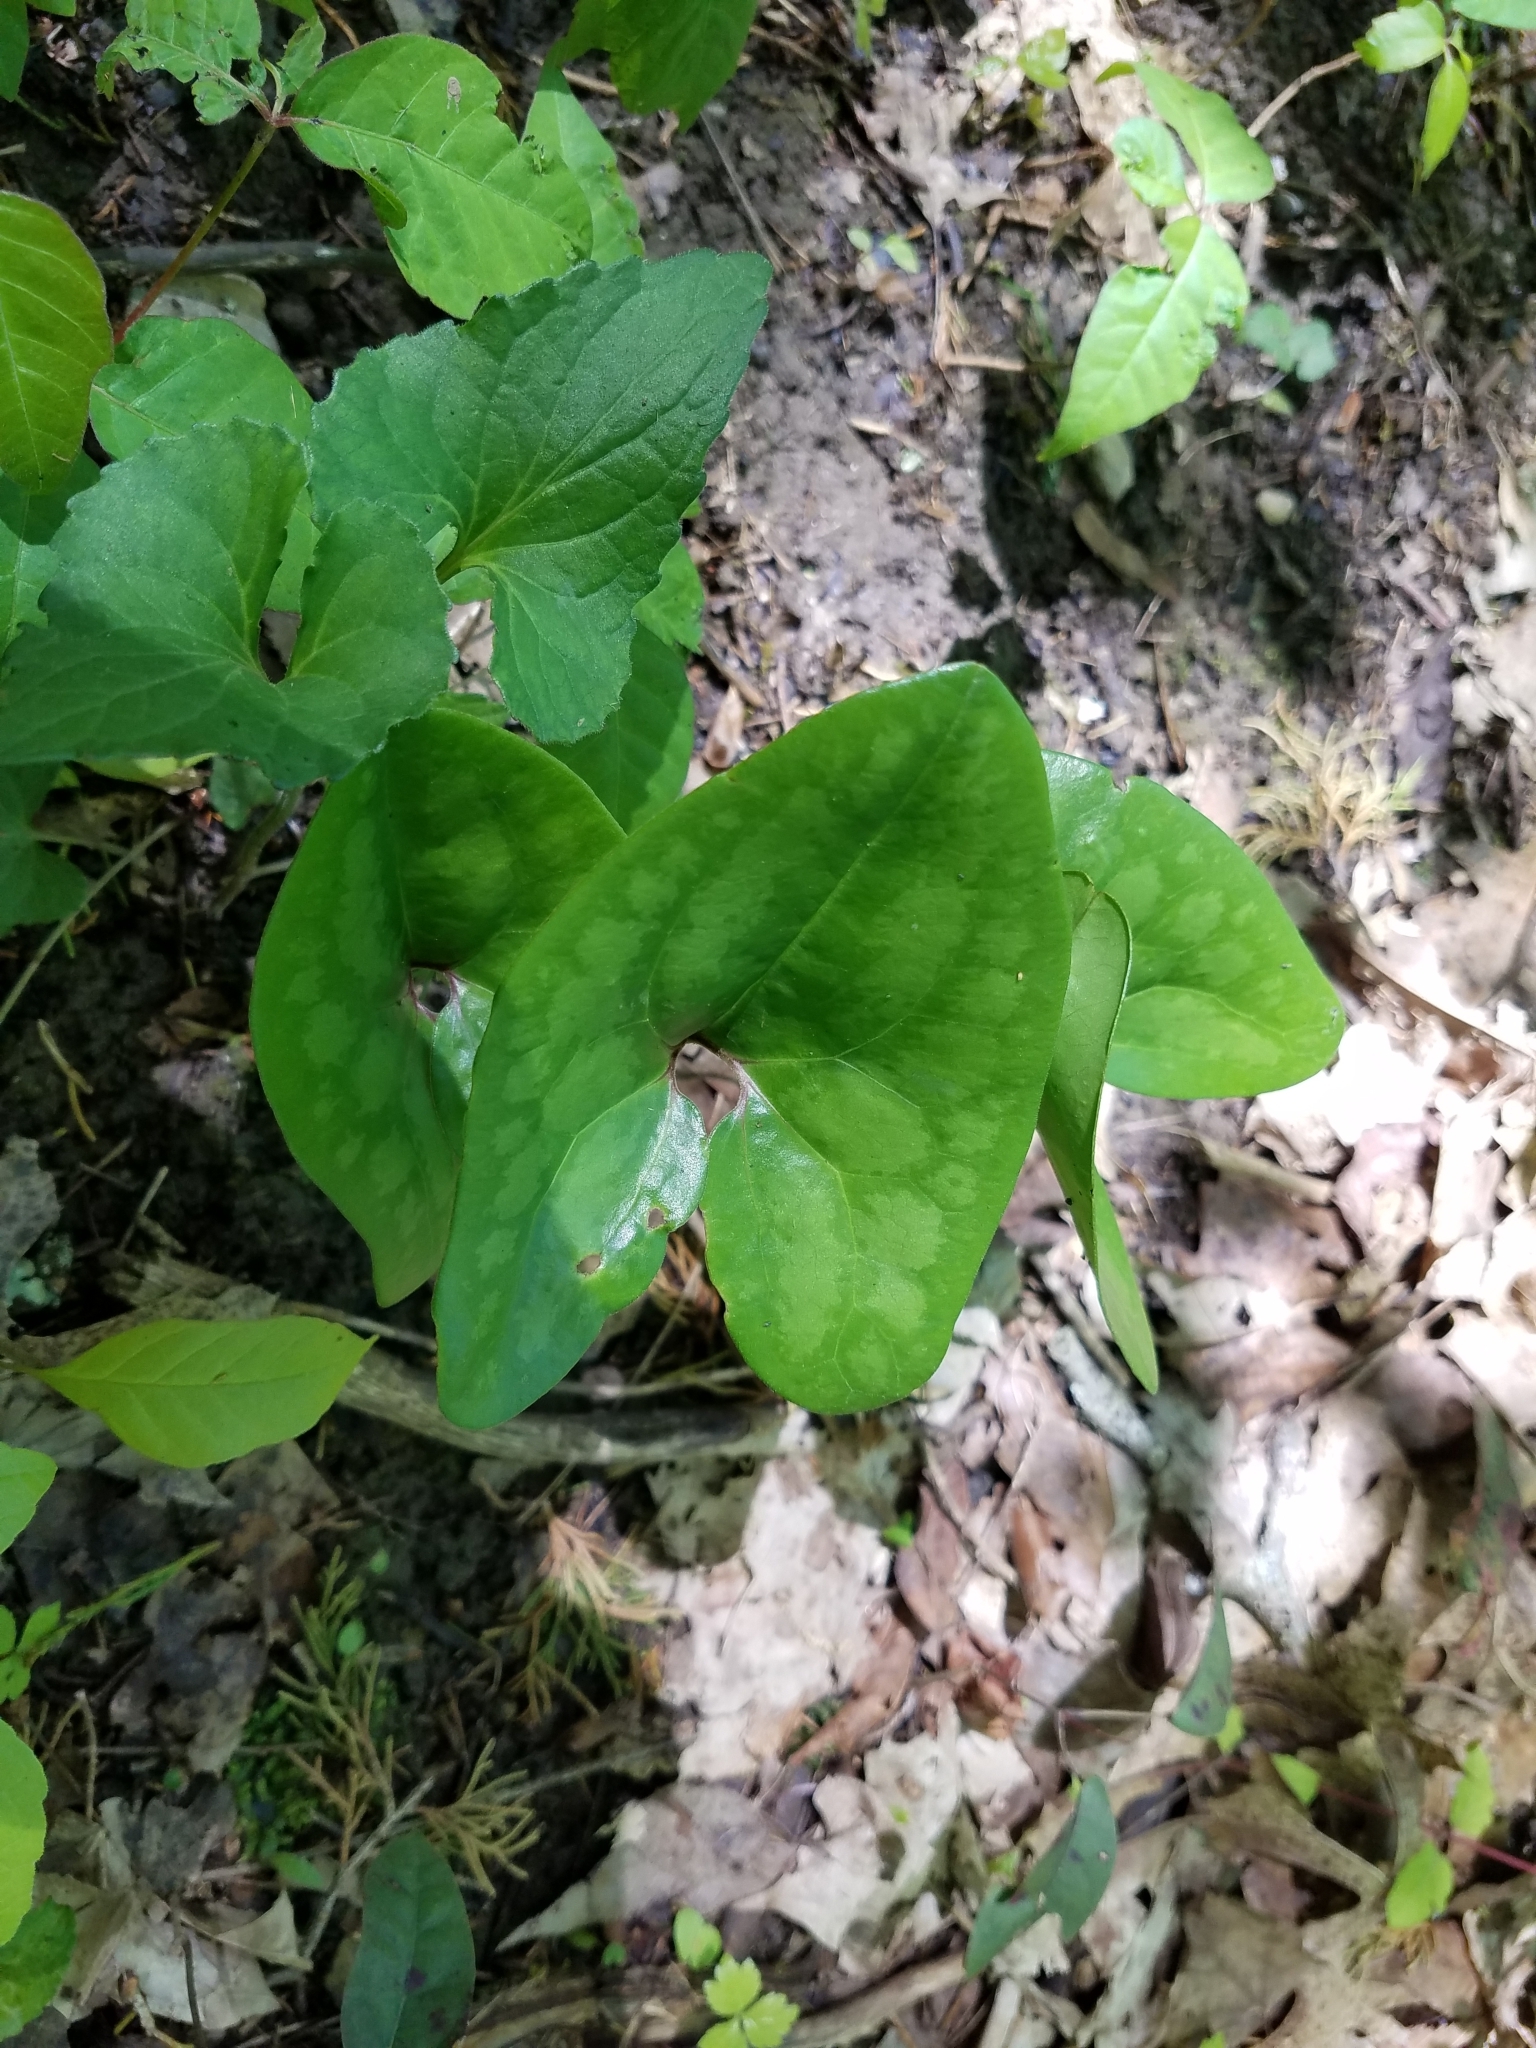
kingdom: Plantae
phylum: Tracheophyta
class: Magnoliopsida
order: Piperales
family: Aristolochiaceae
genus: Hexastylis
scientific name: Hexastylis arifolia
